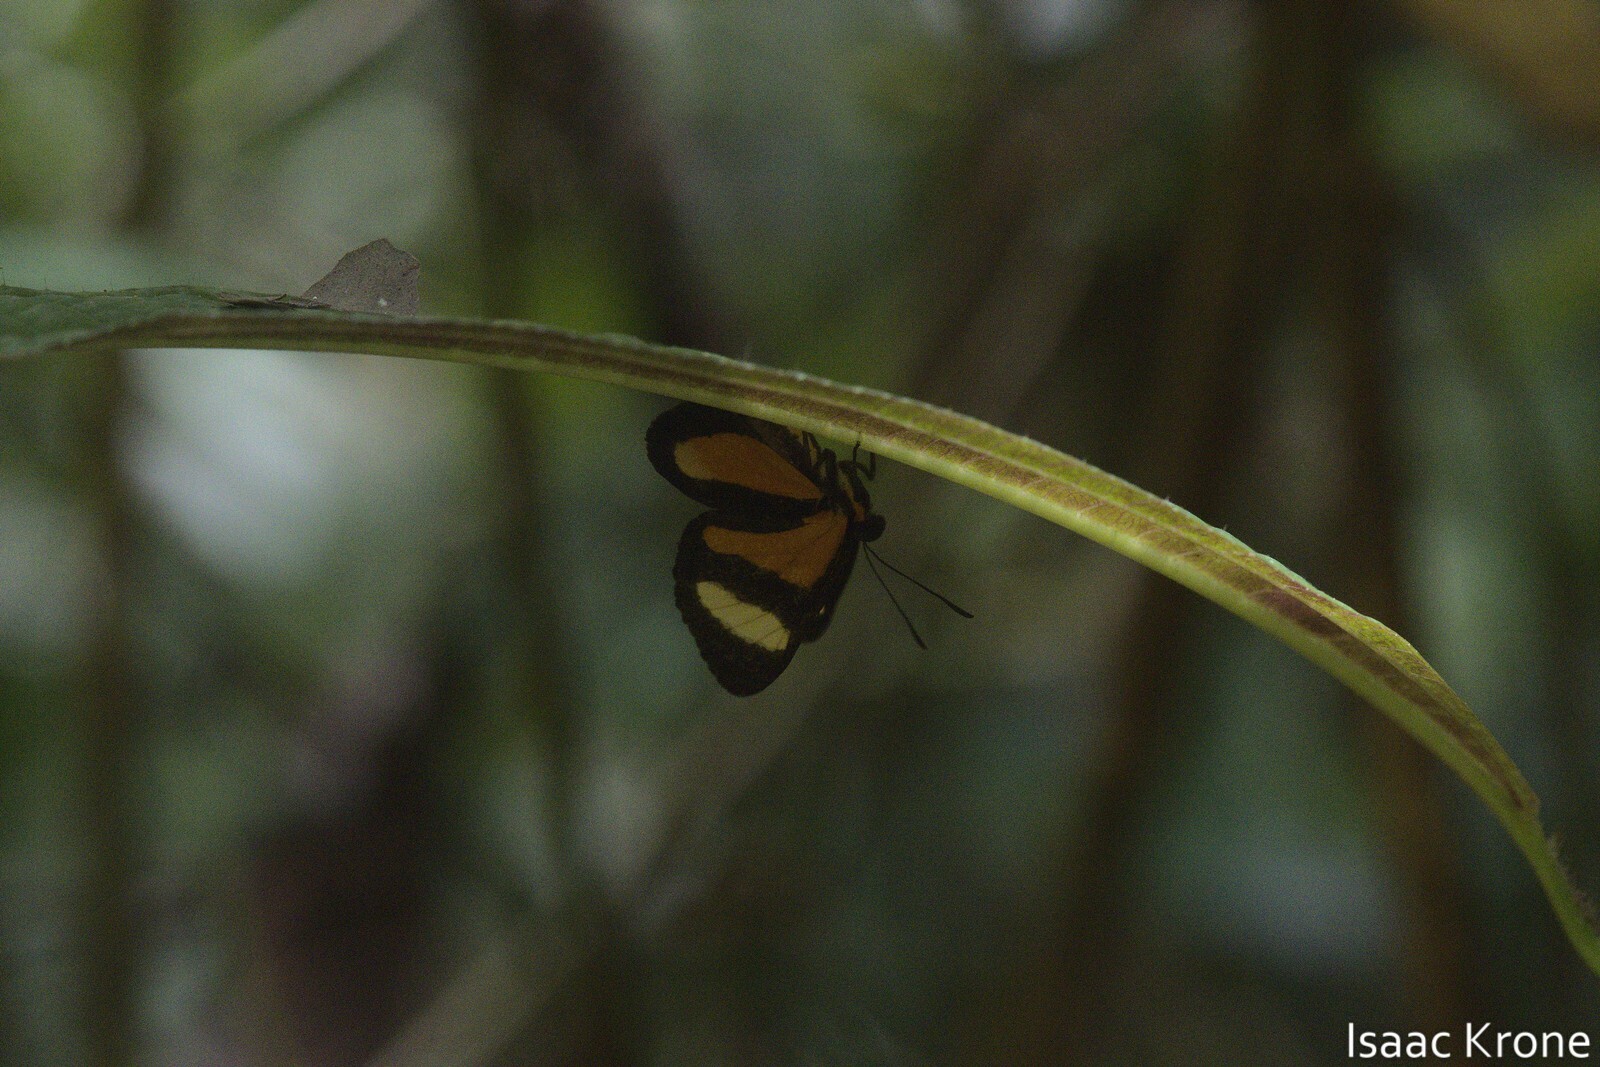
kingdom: Animalia
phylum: Arthropoda
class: Insecta
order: Lepidoptera
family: Riodinidae
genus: Cartea
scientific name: Cartea vitula
